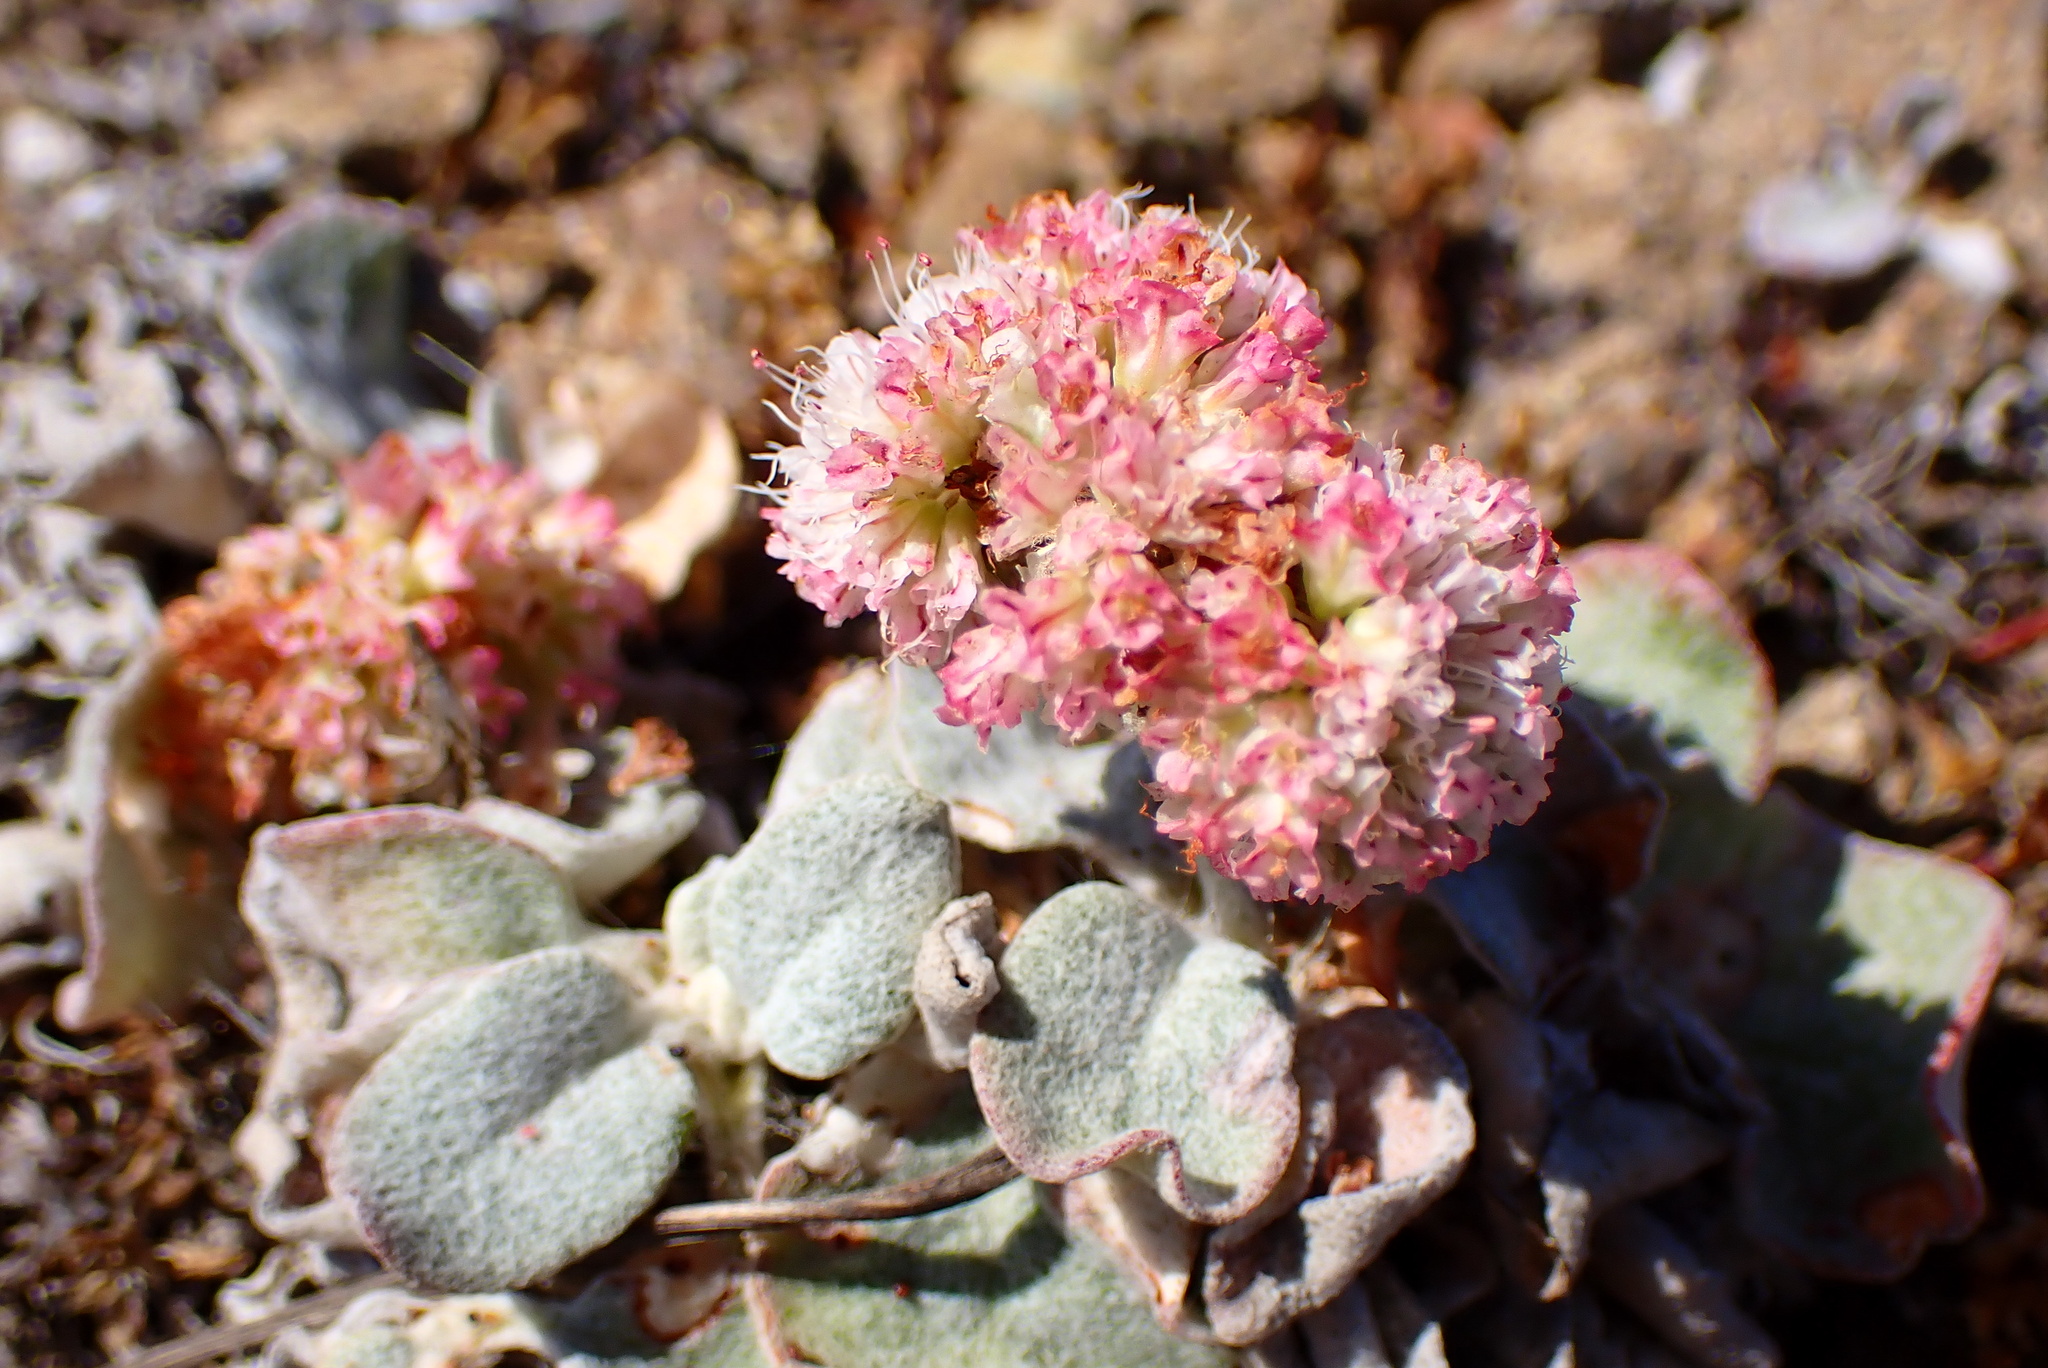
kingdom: Plantae
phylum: Tracheophyta
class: Magnoliopsida
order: Caryophyllales
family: Polygonaceae
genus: Eriogonum
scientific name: Eriogonum latifolium
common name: Seaside wild buckwheat
